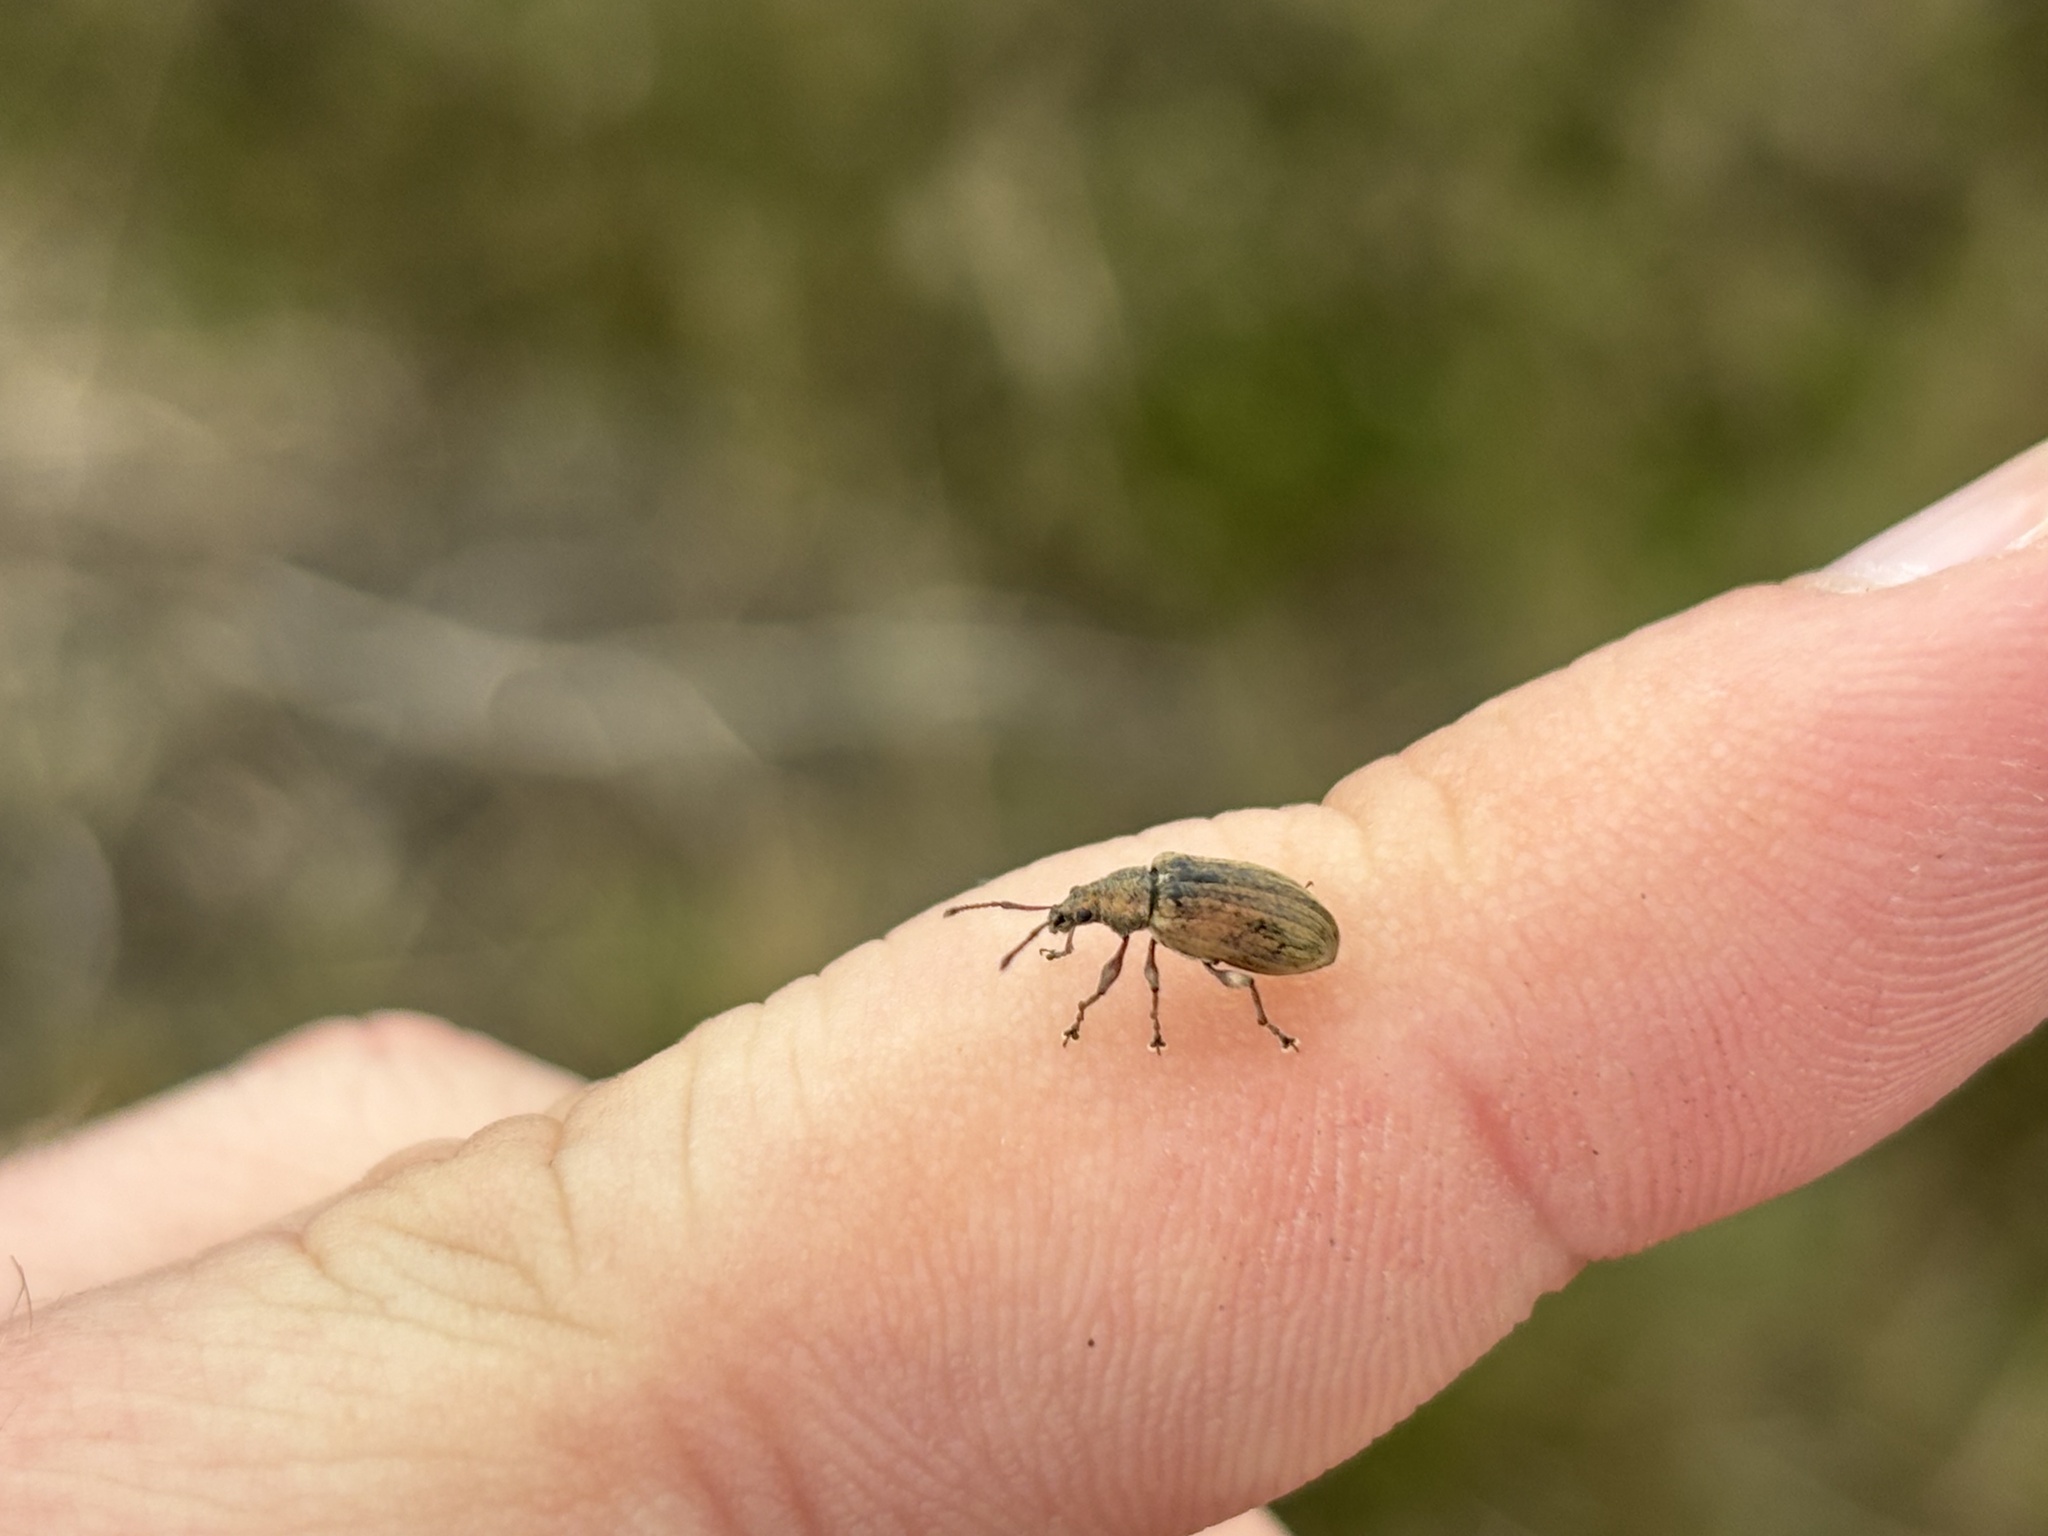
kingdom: Animalia
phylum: Arthropoda
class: Insecta
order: Coleoptera
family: Curculionidae
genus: Phyllobius
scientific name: Phyllobius pyri
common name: Common leaf weevil
